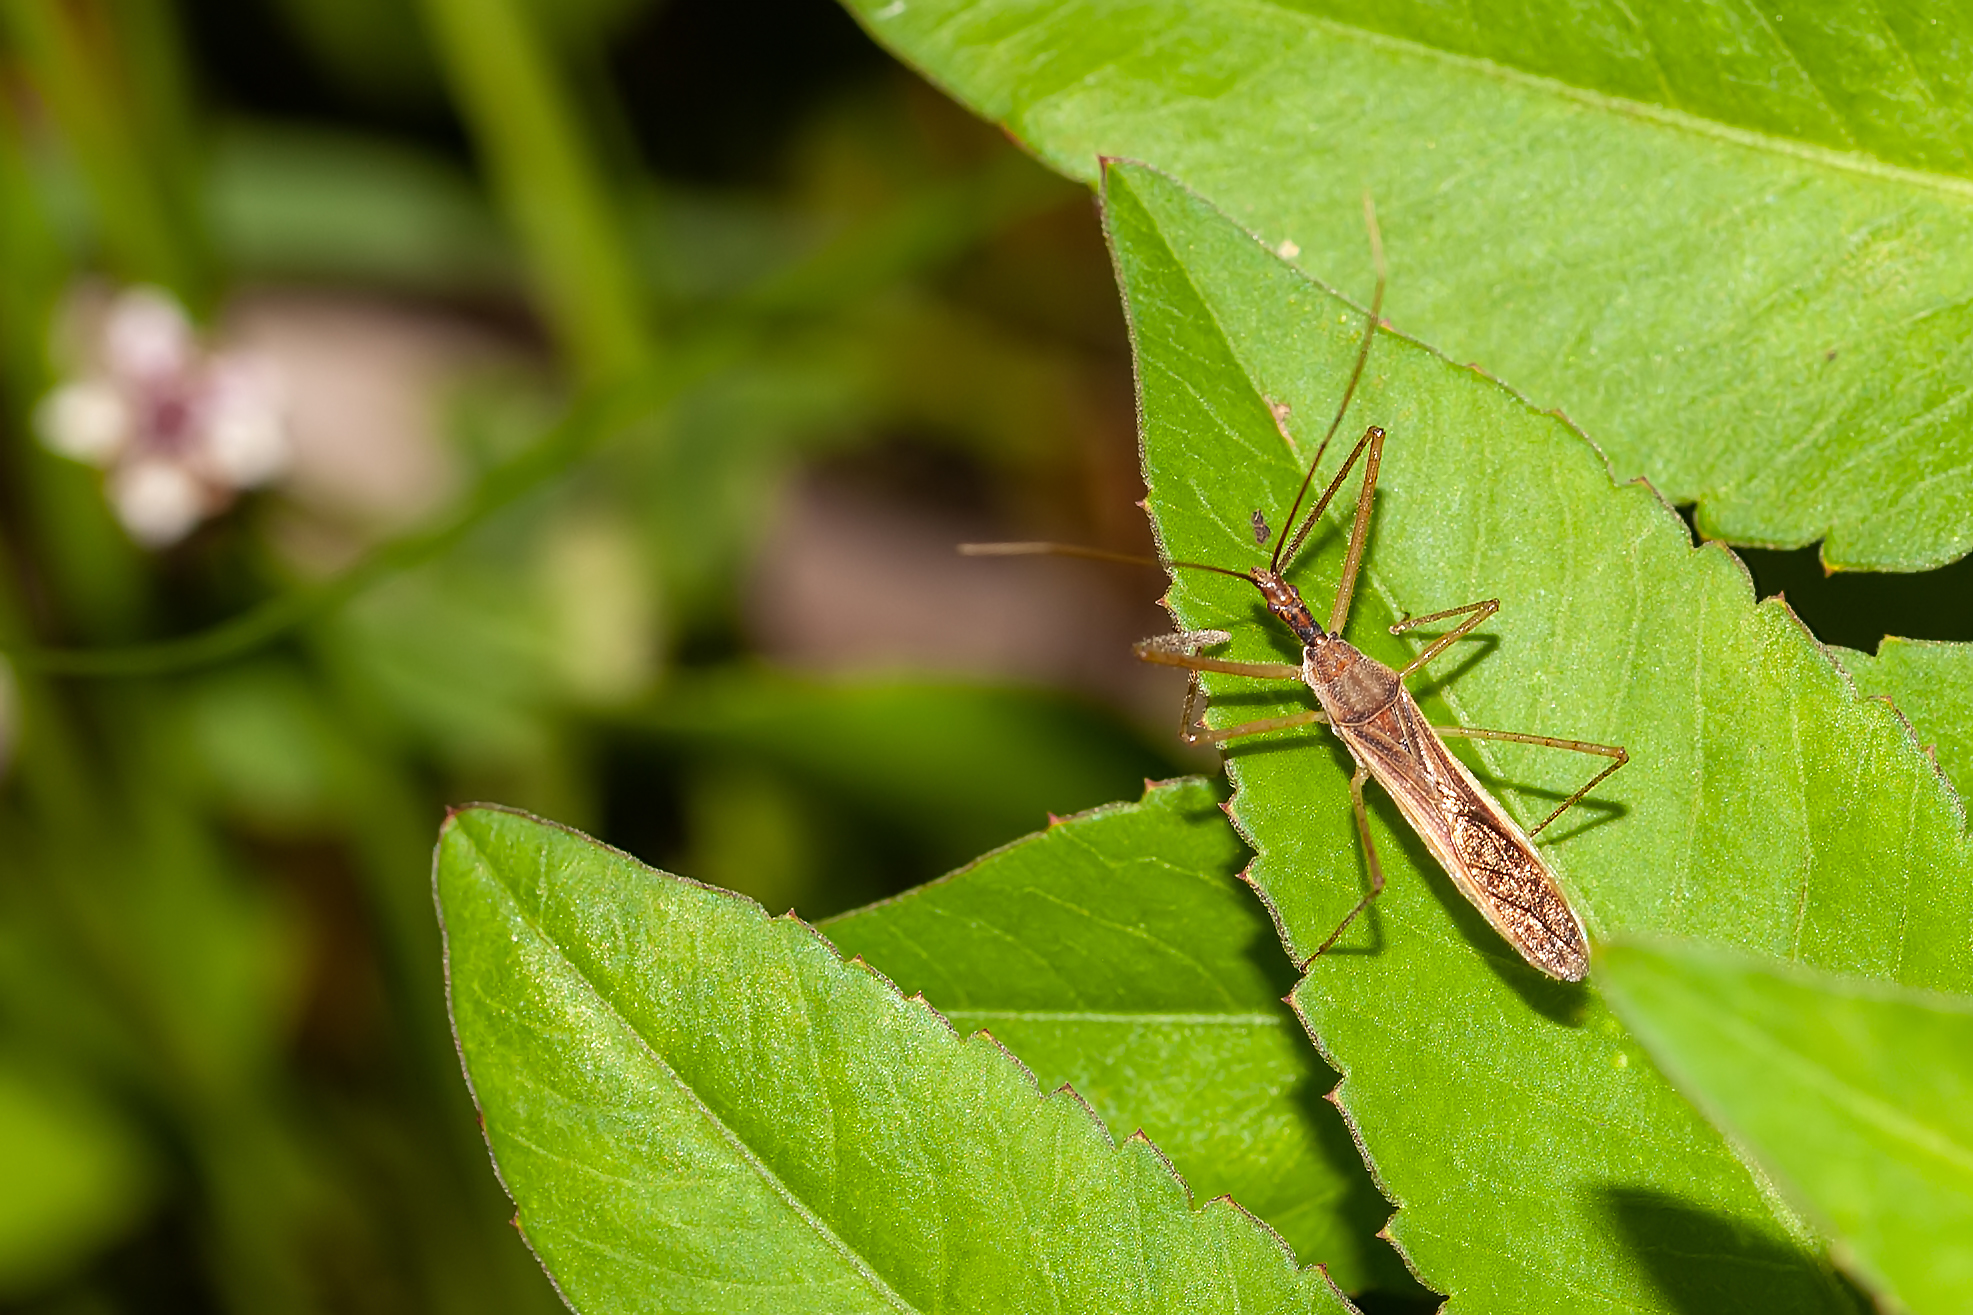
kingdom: Animalia
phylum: Arthropoda
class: Insecta
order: Hemiptera
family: Reduviidae
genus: Zelus
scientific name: Zelus cervicalis
